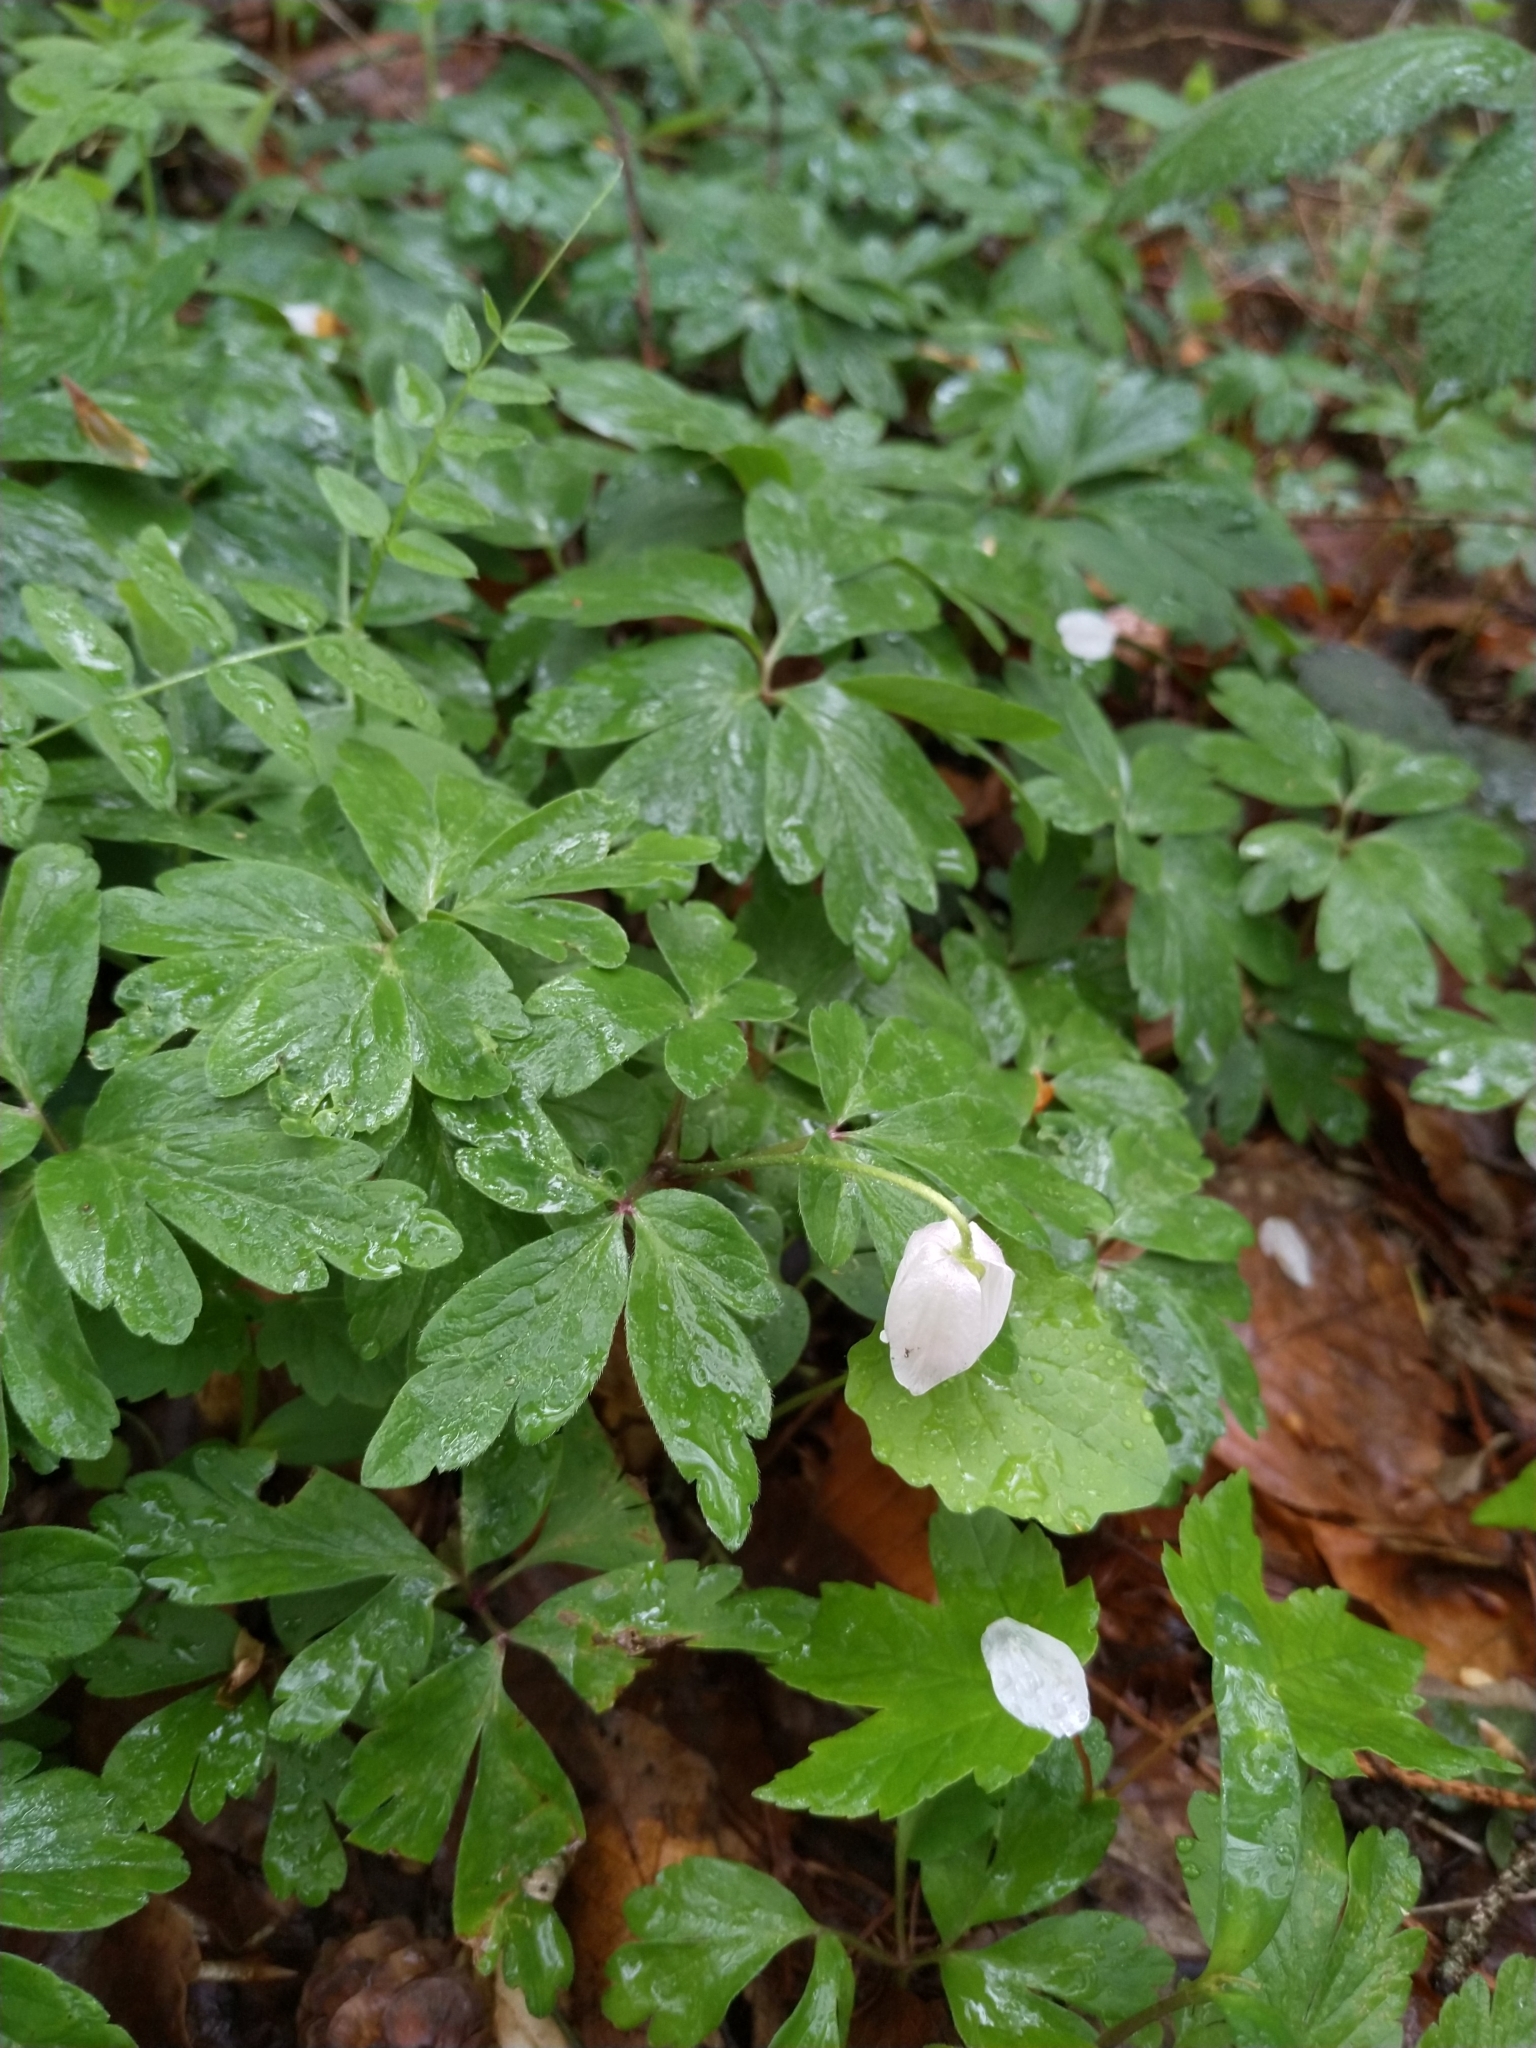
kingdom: Plantae
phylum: Tracheophyta
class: Magnoliopsida
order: Ranunculales
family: Ranunculaceae
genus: Anemone
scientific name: Anemone nemorosa
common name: Wood anemone
